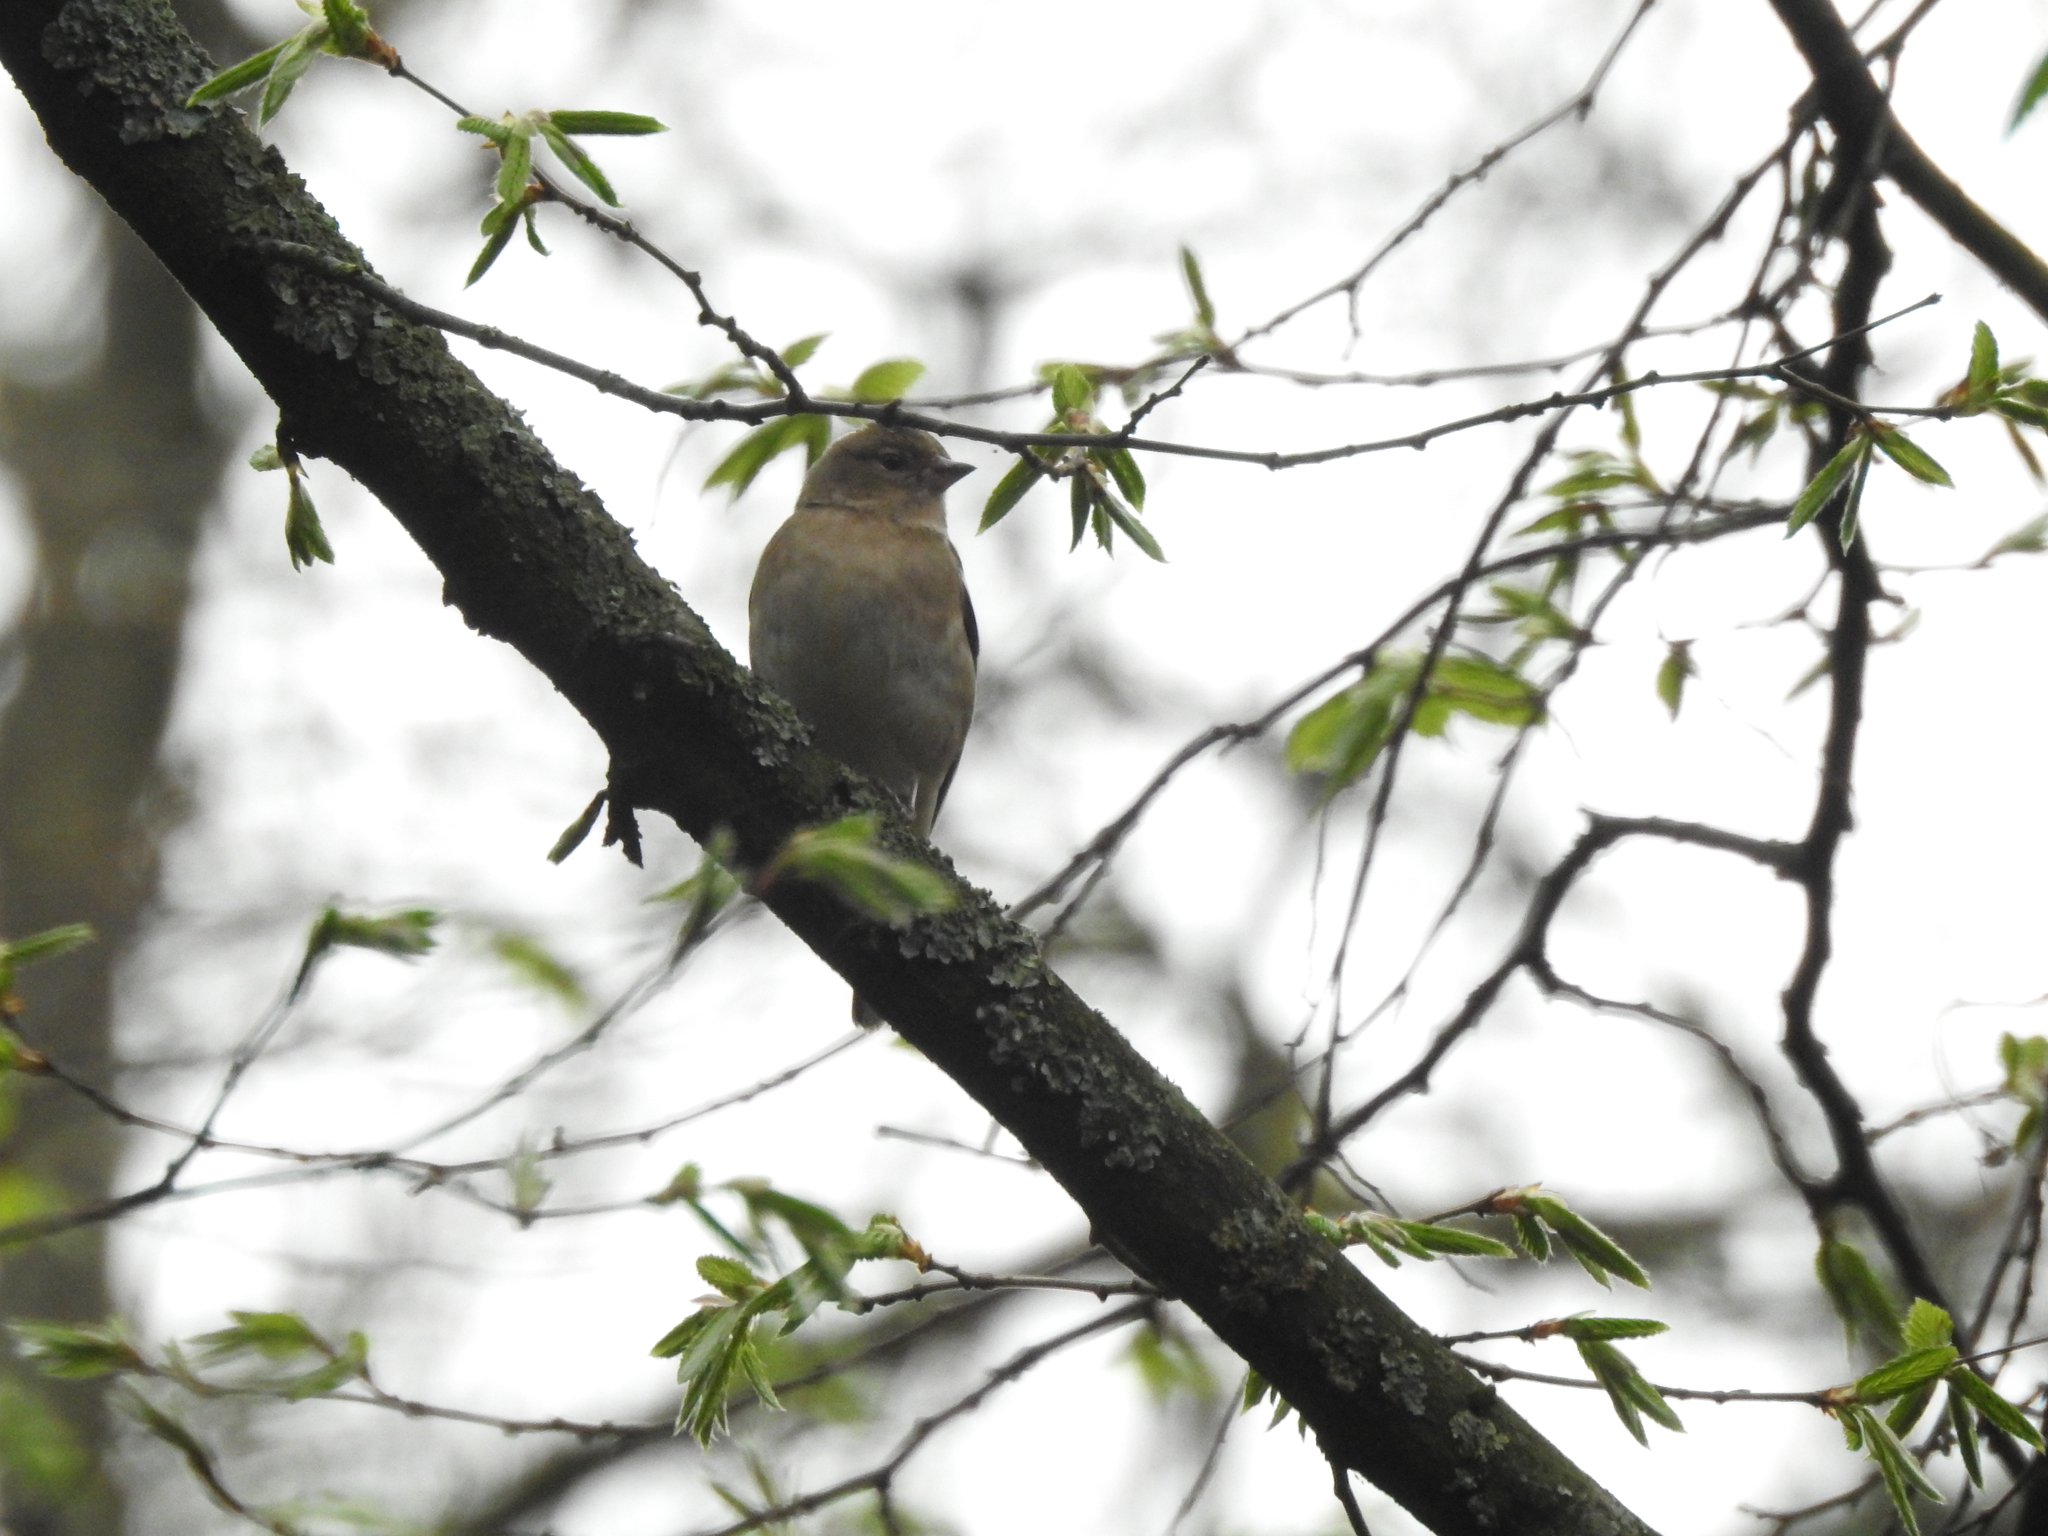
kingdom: Animalia
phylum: Chordata
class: Aves
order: Passeriformes
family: Fringillidae
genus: Fringilla
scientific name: Fringilla coelebs
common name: Common chaffinch
